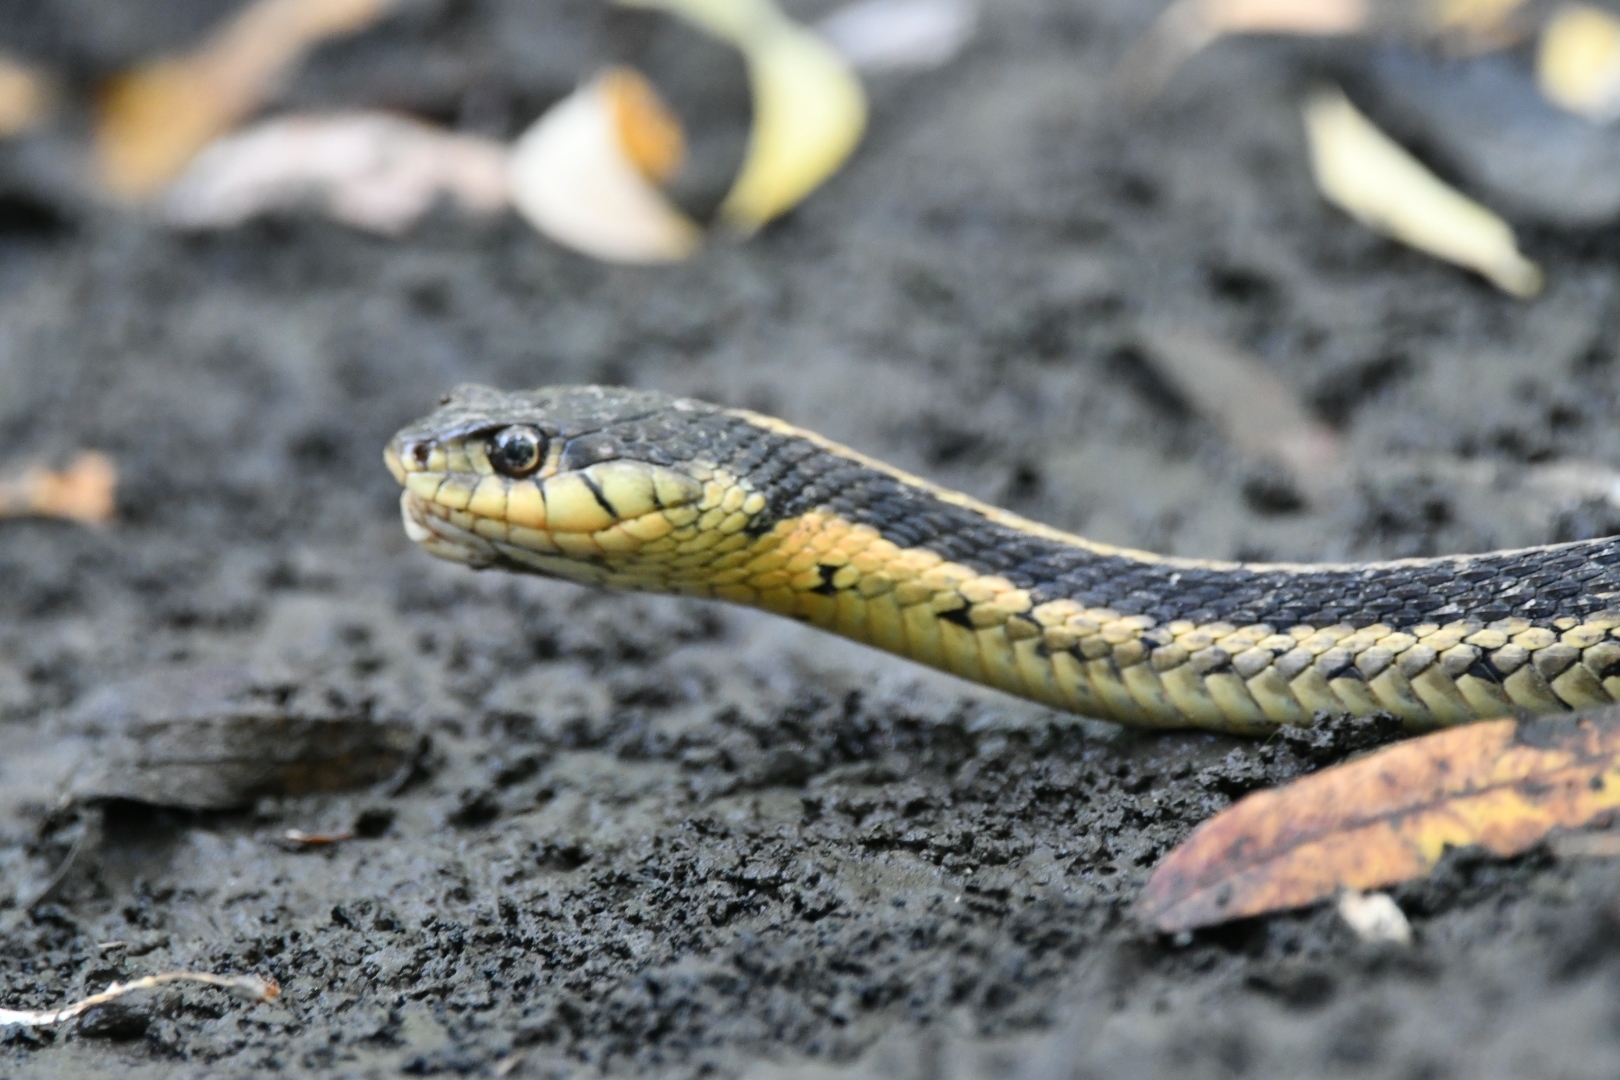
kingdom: Animalia
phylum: Chordata
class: Squamata
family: Colubridae
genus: Thamnophis
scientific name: Thamnophis sirtalis
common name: Common garter snake
